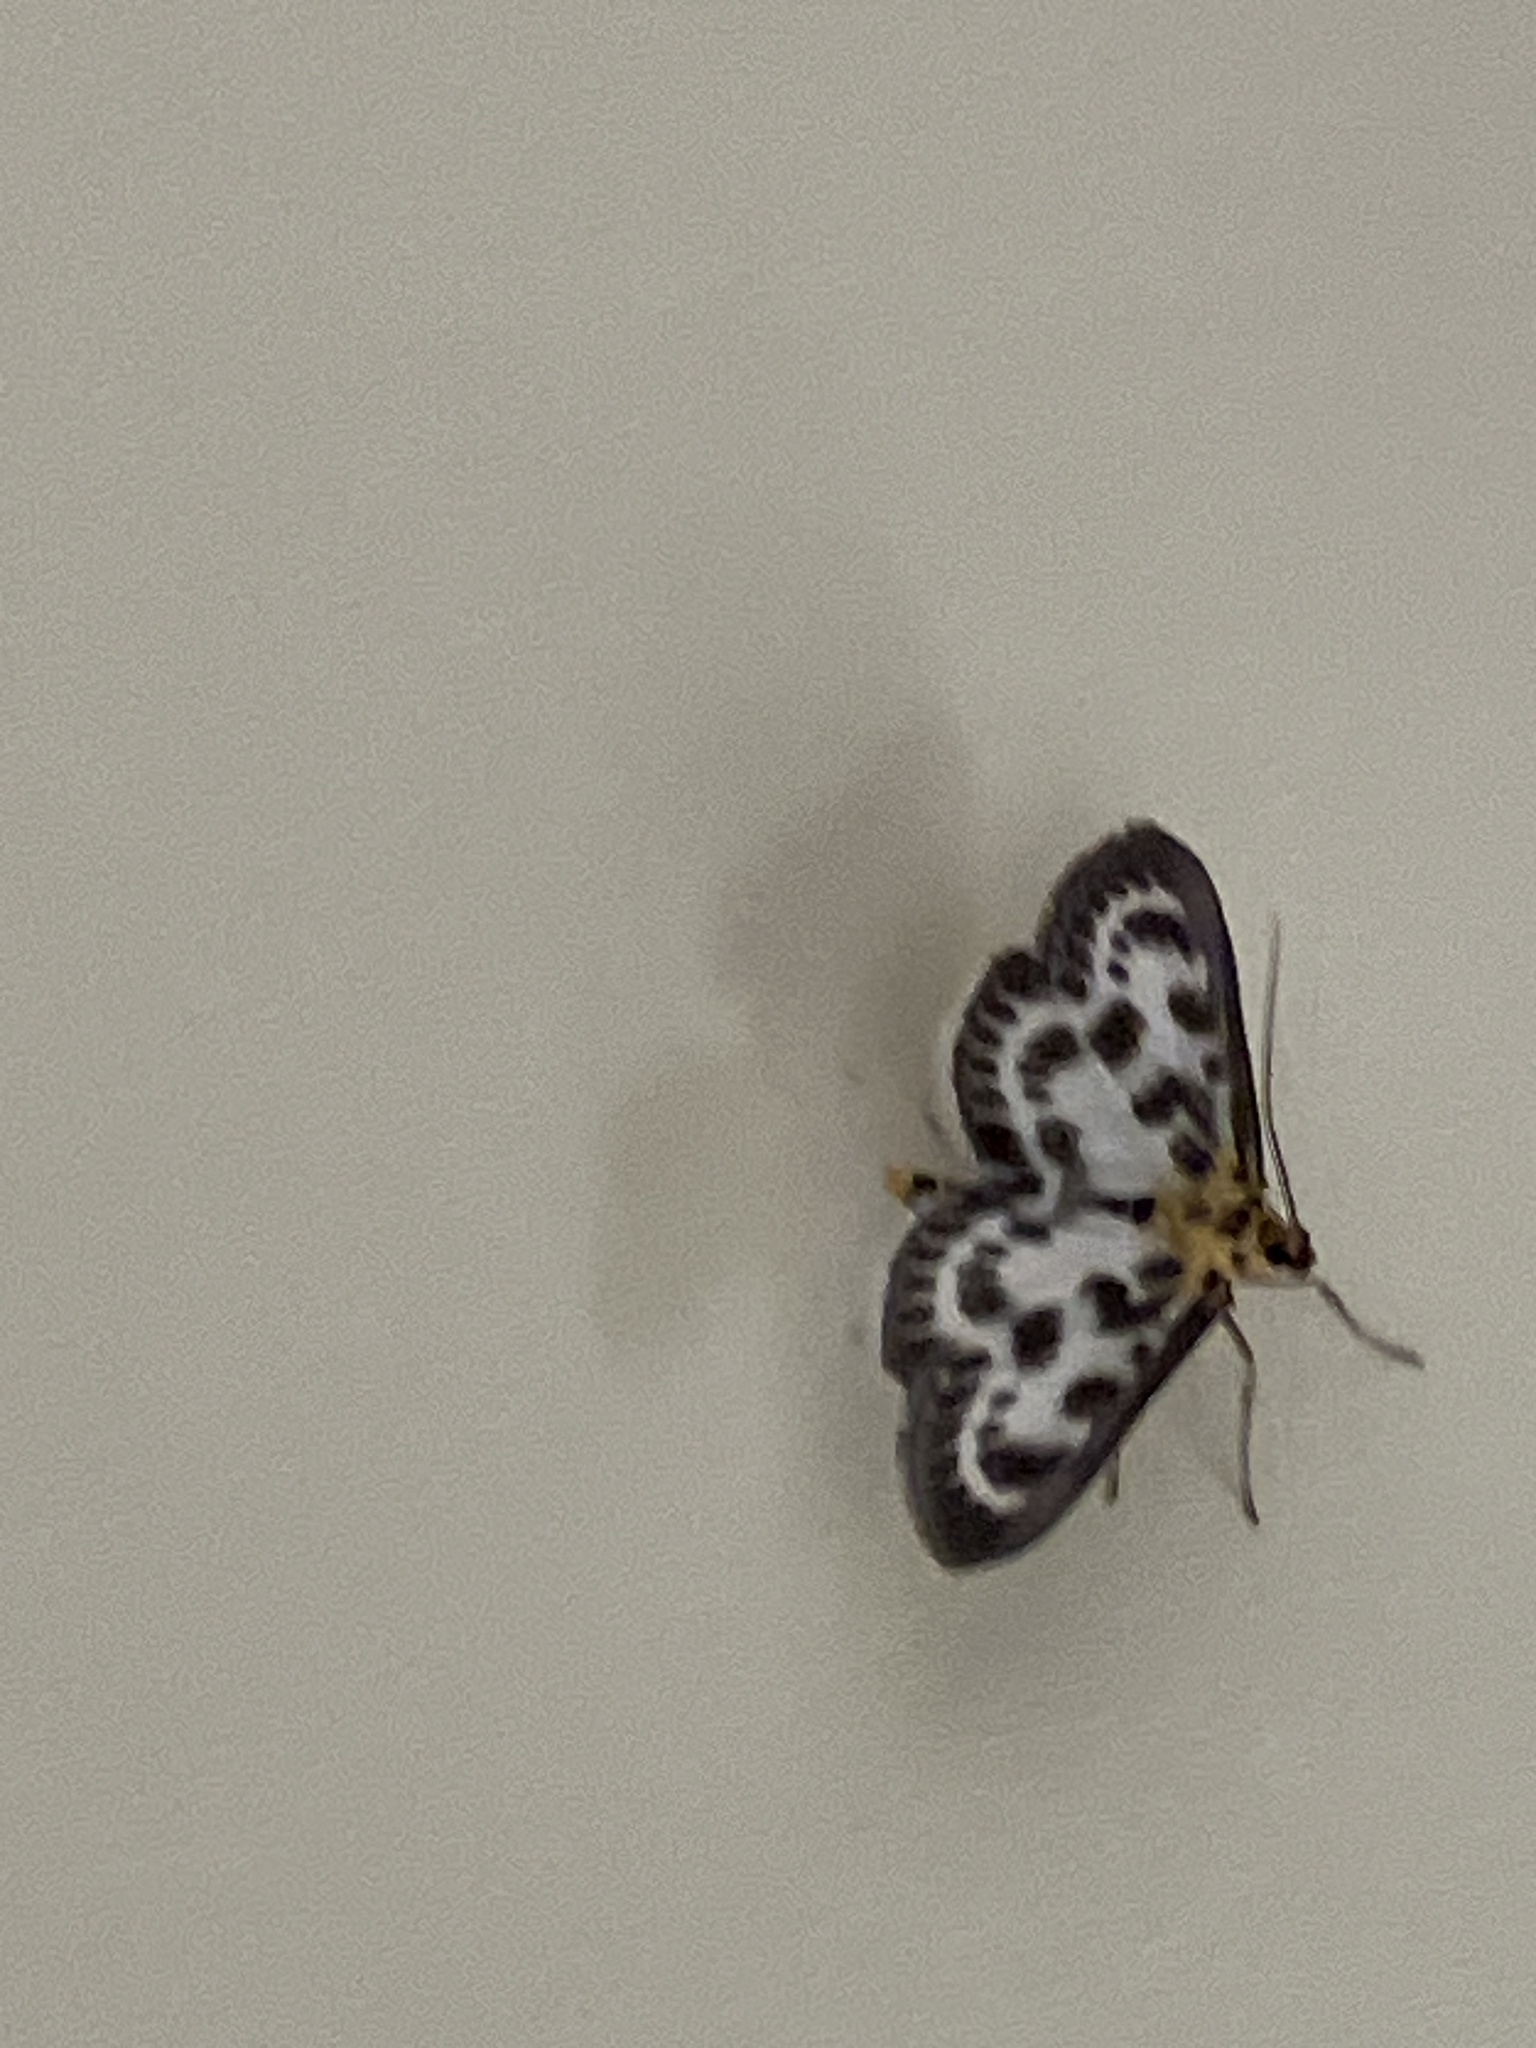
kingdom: Animalia
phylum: Arthropoda
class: Insecta
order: Lepidoptera
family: Crambidae
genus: Anania
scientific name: Anania hortulata
